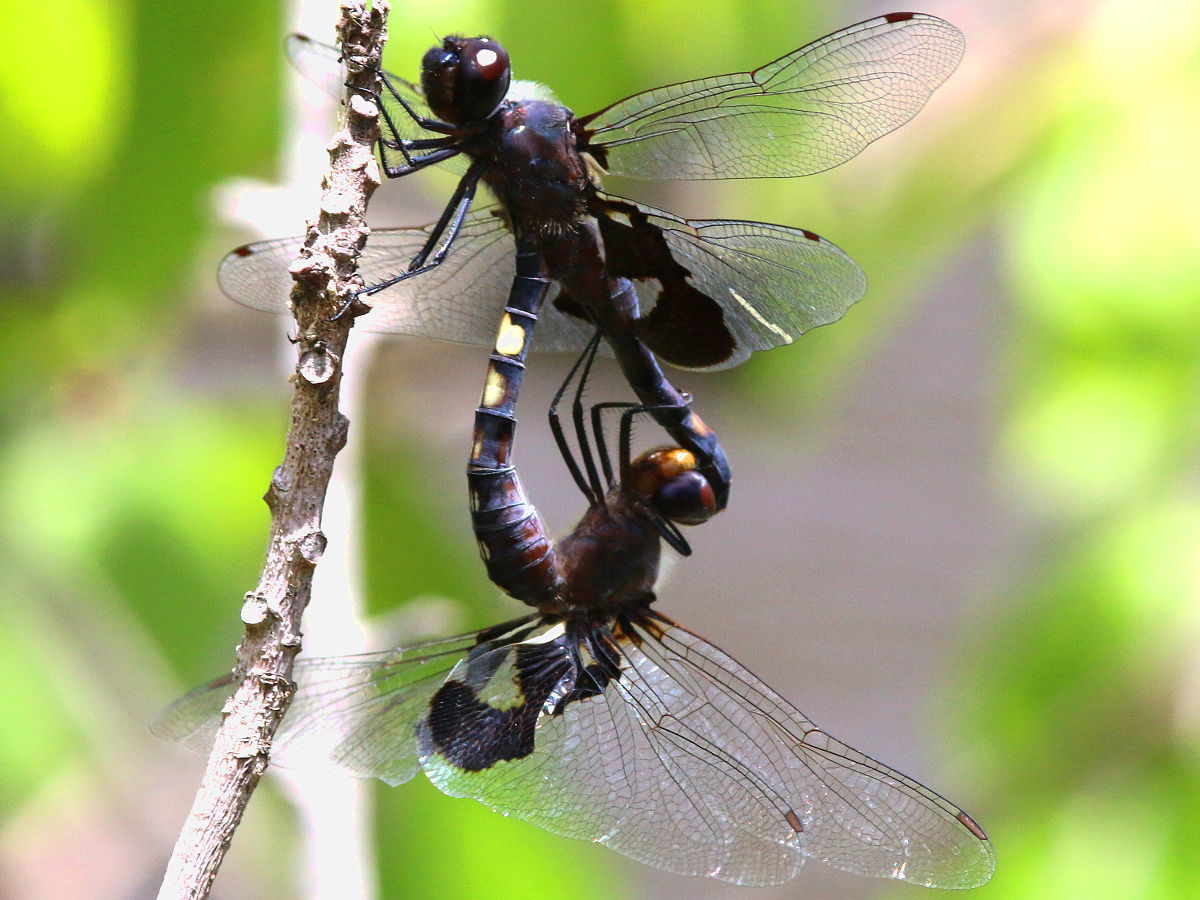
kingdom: Animalia
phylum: Arthropoda
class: Insecta
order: Odonata
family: Libellulidae
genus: Tramea
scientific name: Tramea lacerata
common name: Black saddlebags
